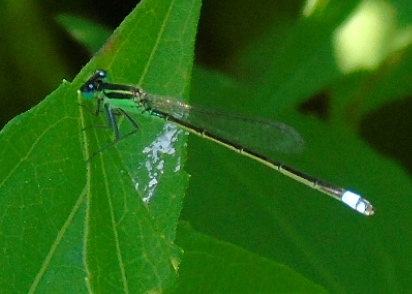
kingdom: Animalia
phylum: Arthropoda
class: Insecta
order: Odonata
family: Coenagrionidae
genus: Ischnura
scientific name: Ischnura ramburii
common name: Rambur's forktail
